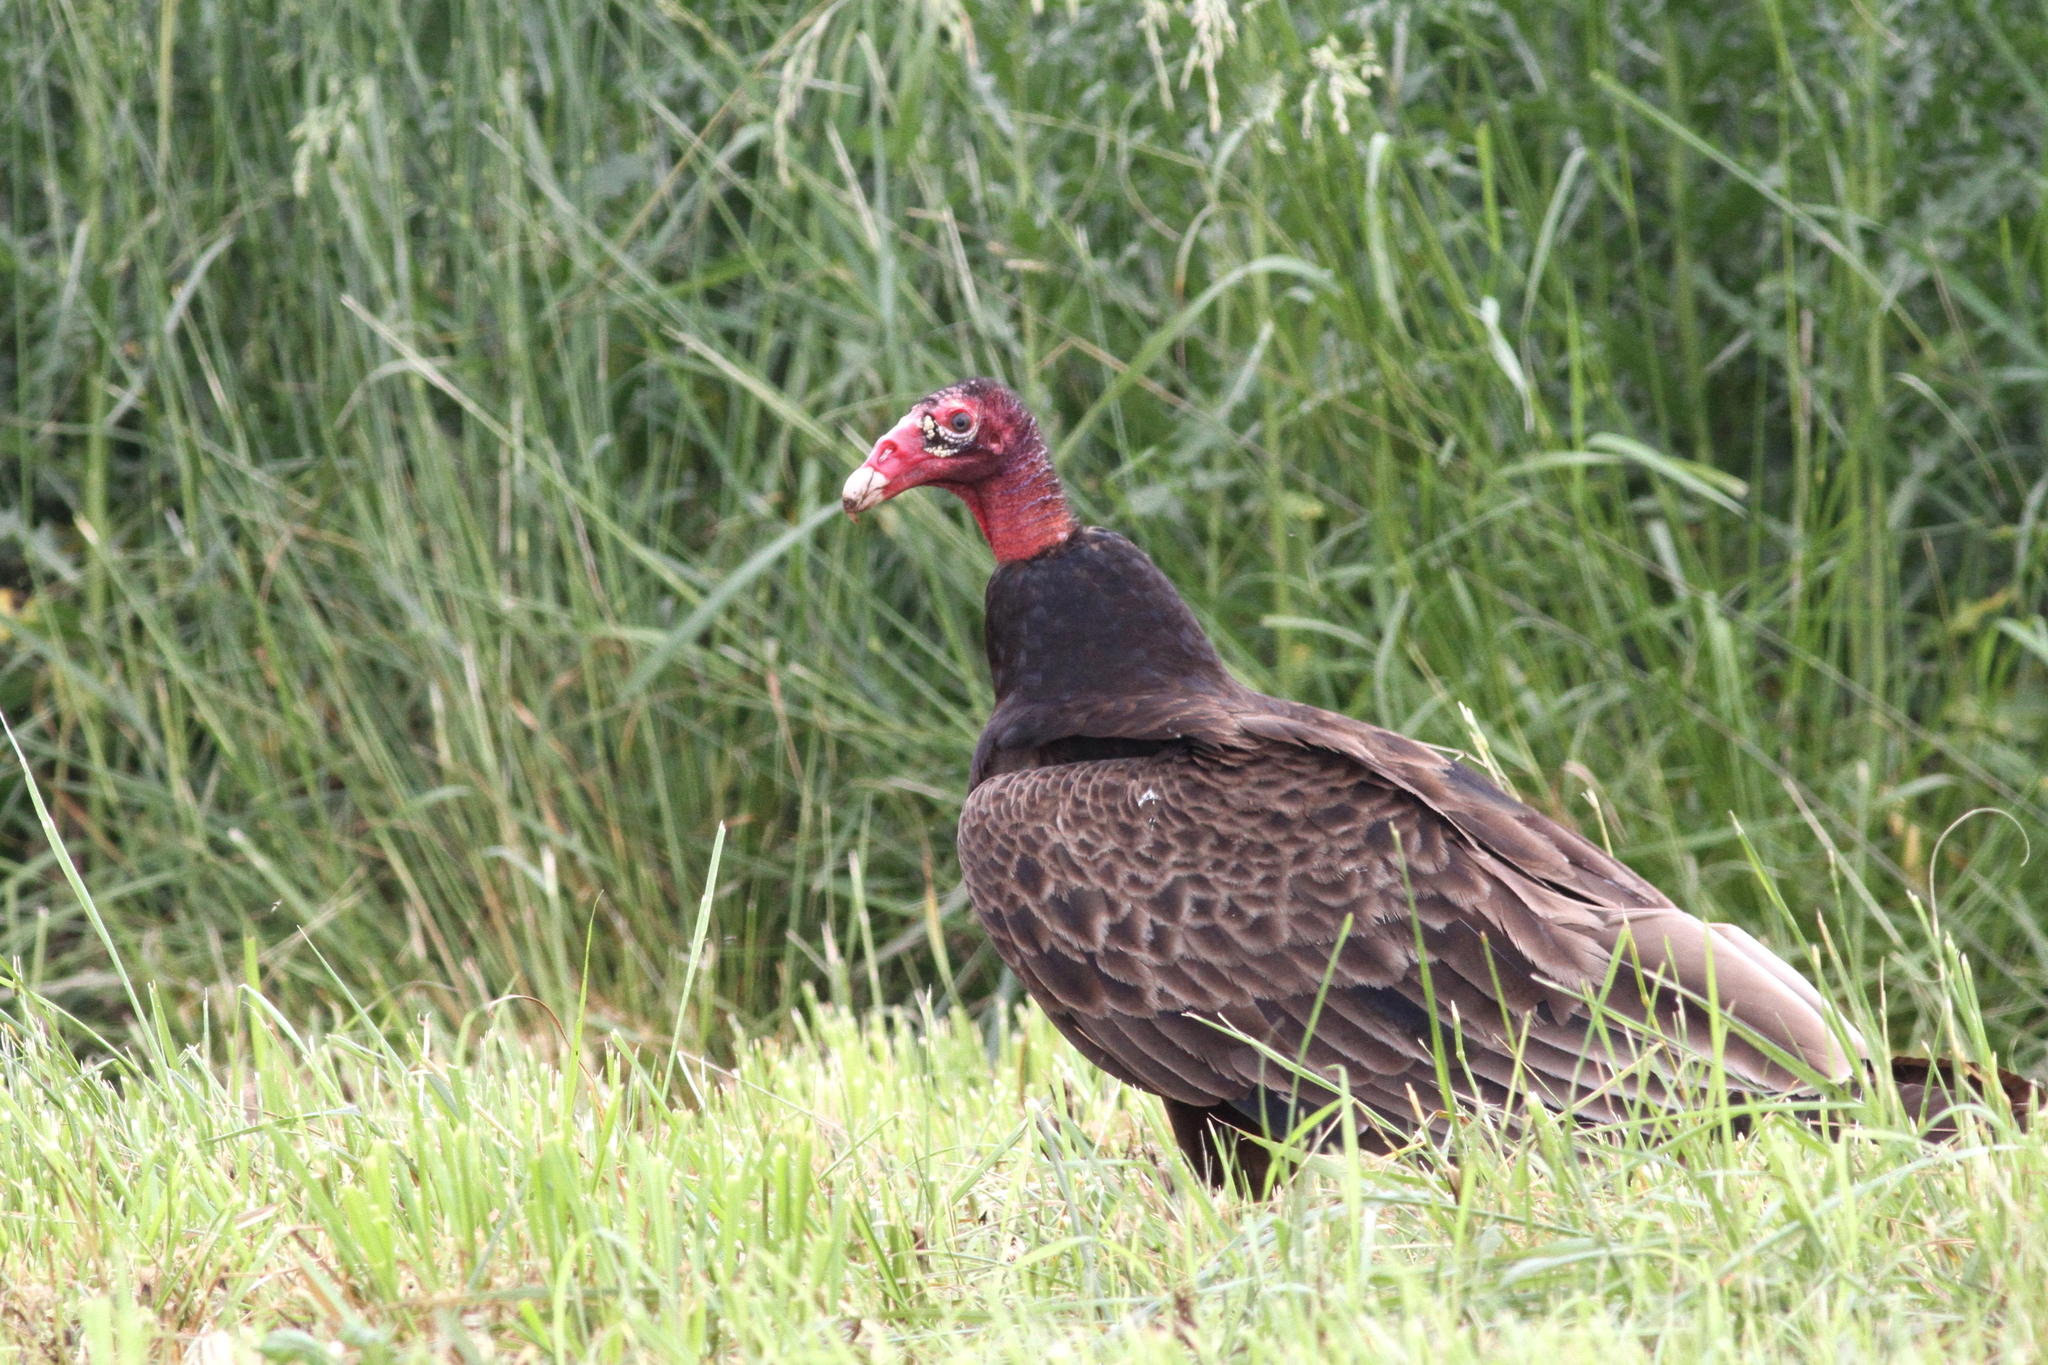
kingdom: Animalia
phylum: Chordata
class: Aves
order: Accipitriformes
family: Cathartidae
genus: Cathartes
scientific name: Cathartes aura
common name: Turkey vulture
